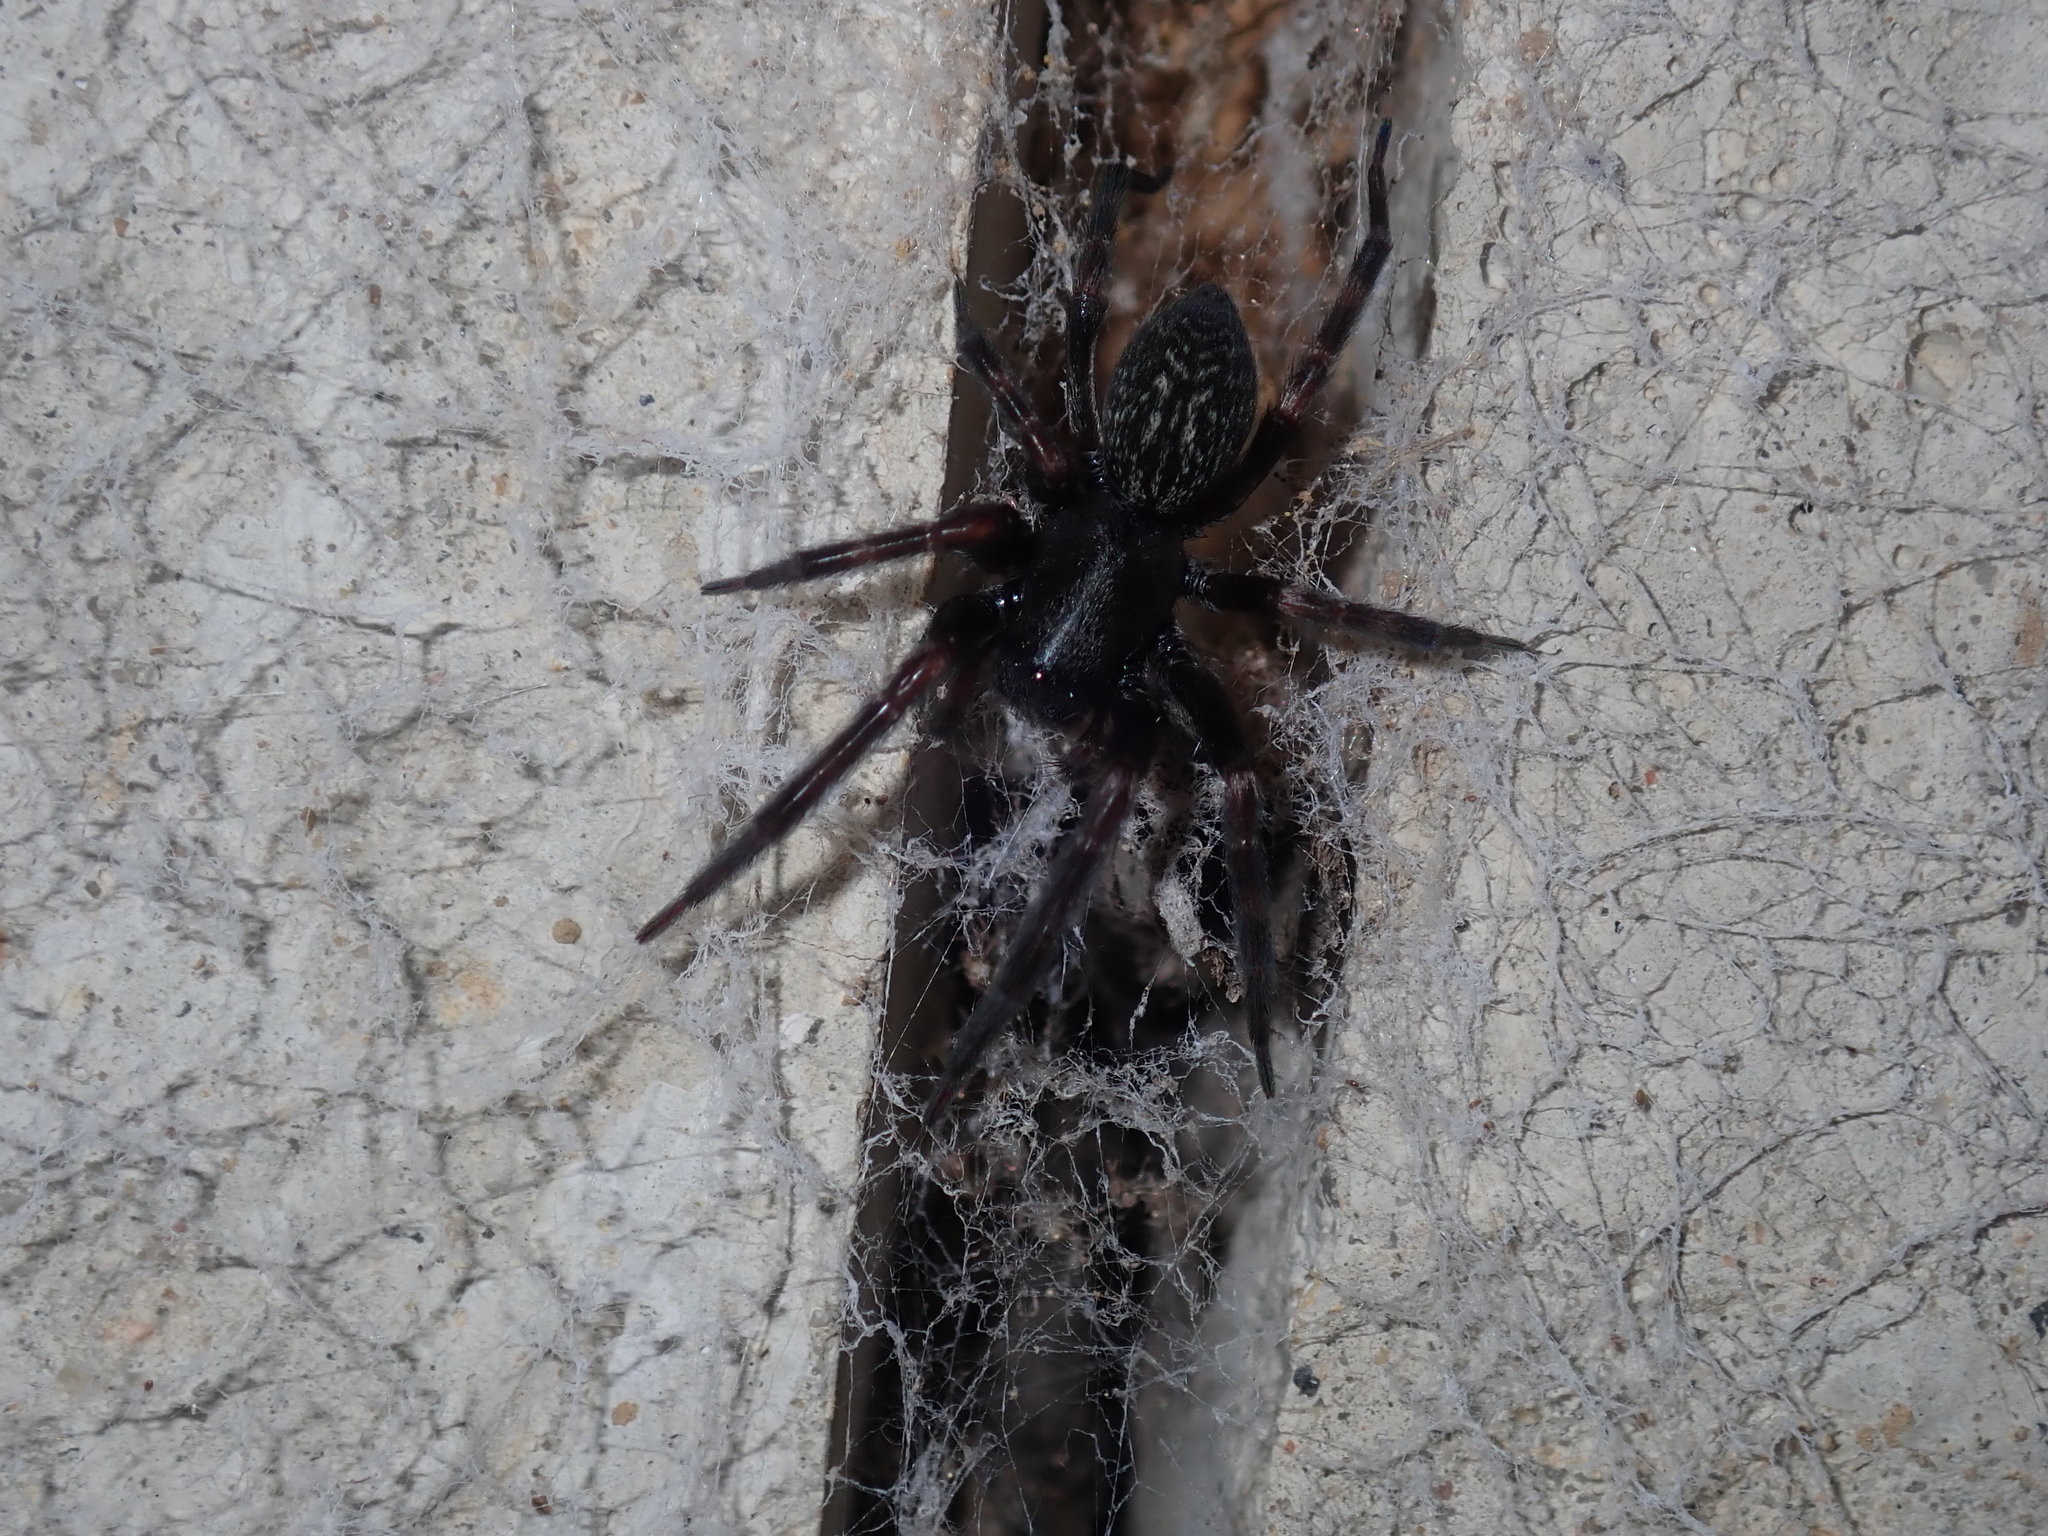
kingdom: Animalia
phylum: Arthropoda
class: Arachnida
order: Araneae
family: Desidae
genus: Badumna
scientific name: Badumna insignis
